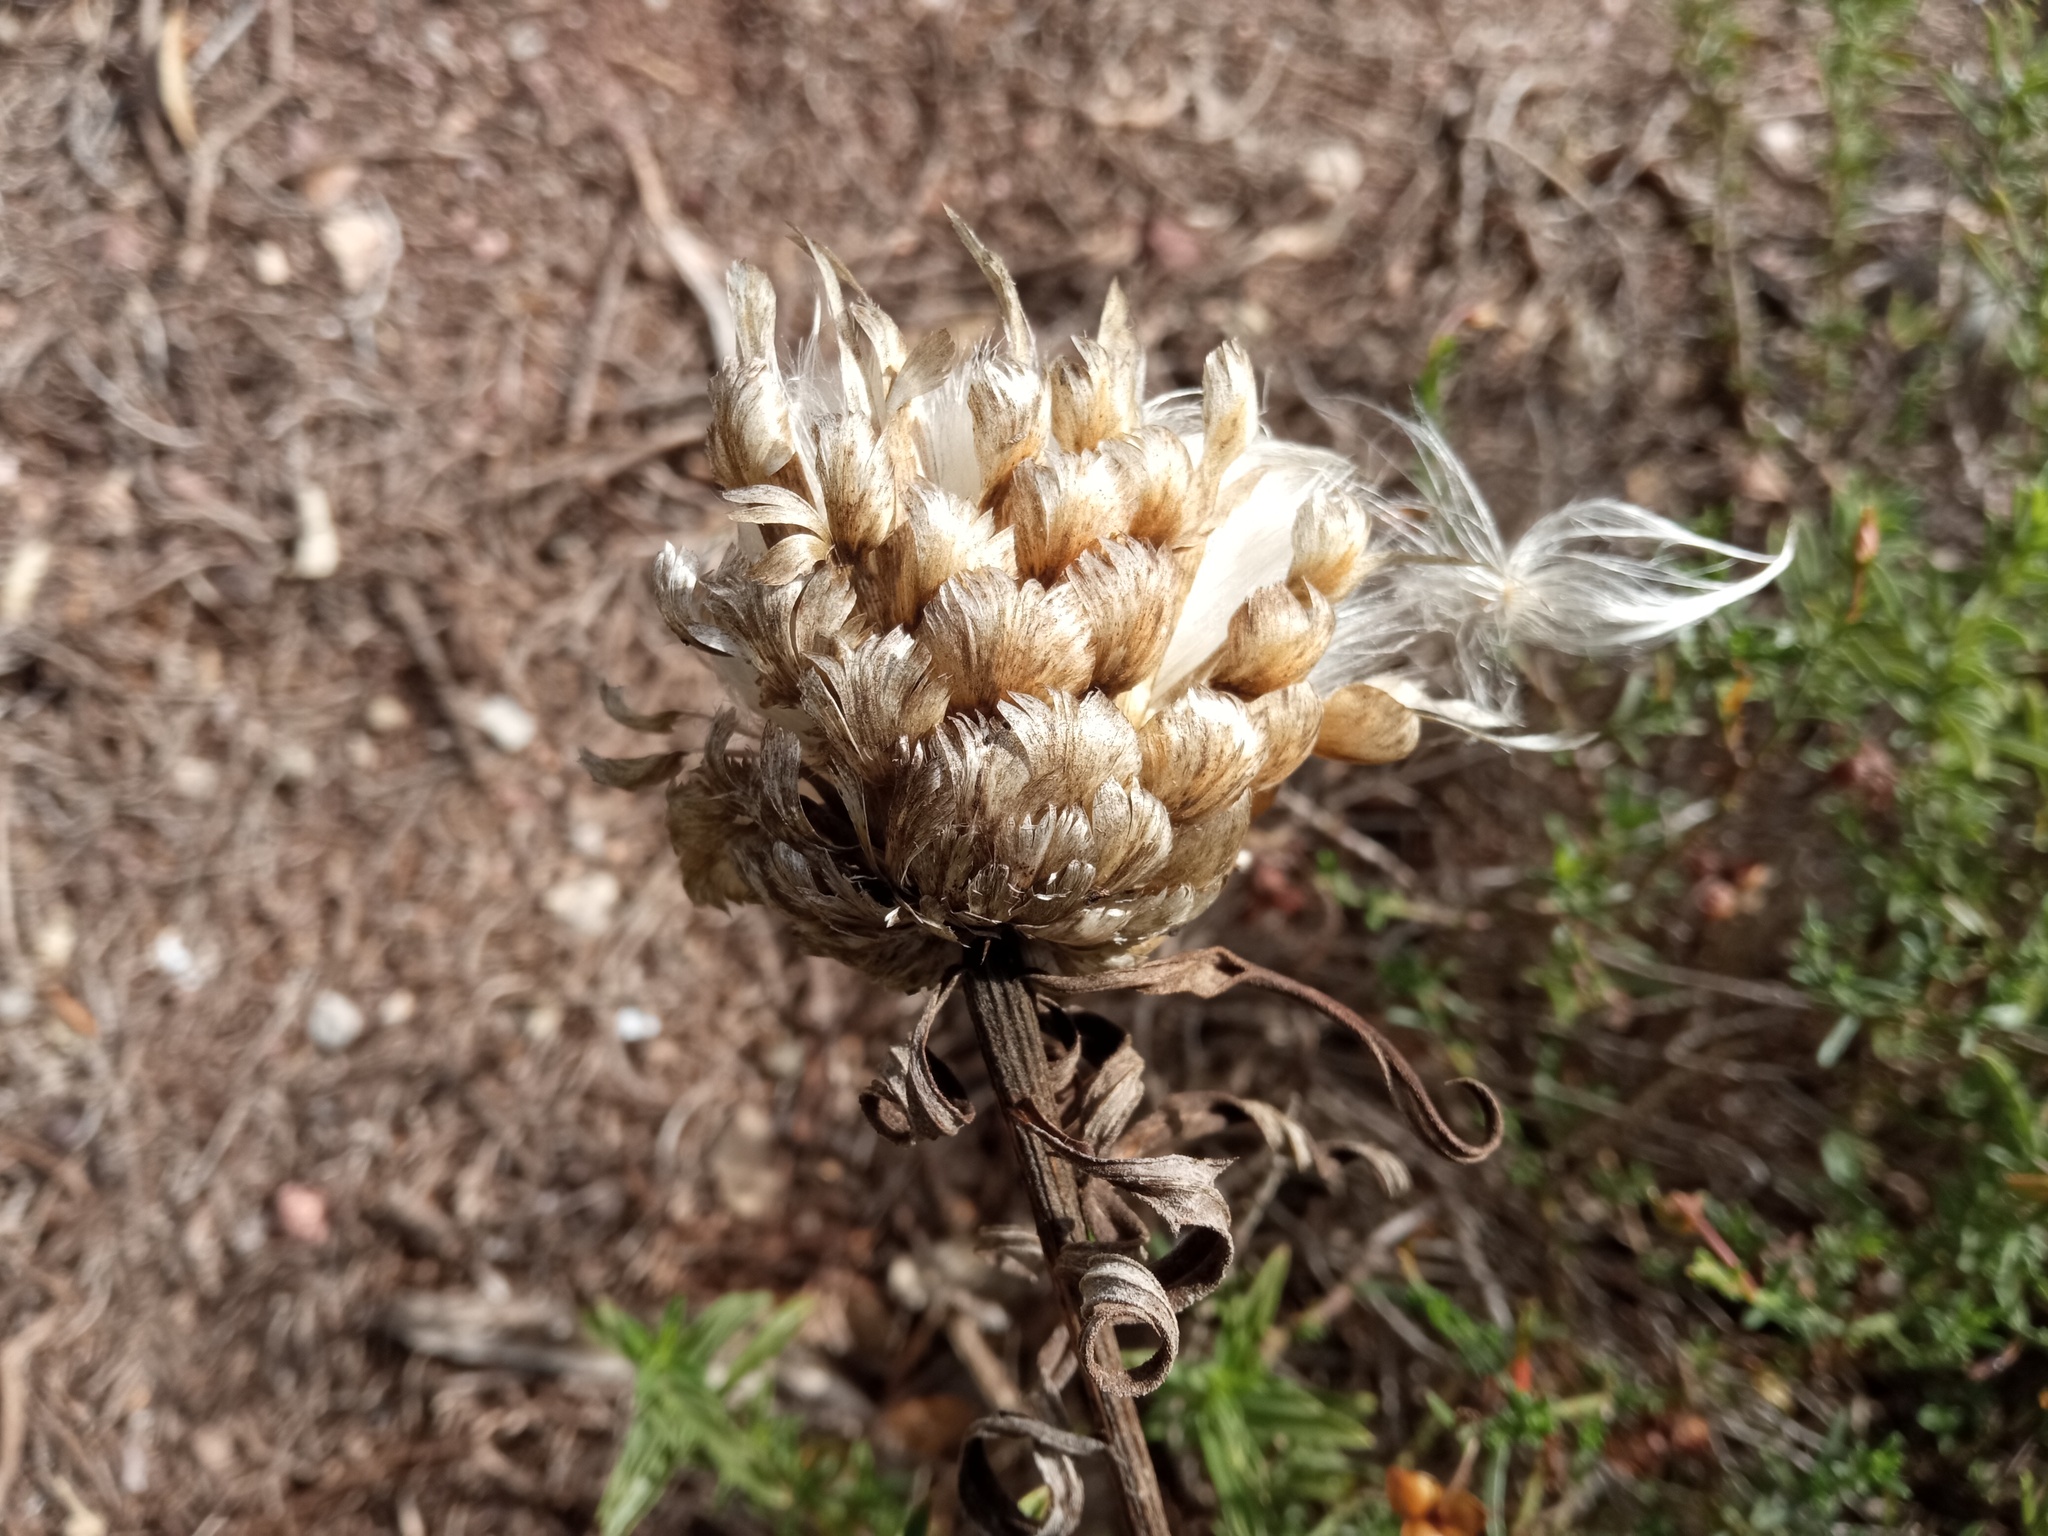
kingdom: Plantae
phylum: Tracheophyta
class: Magnoliopsida
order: Asterales
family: Asteraceae
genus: Leuzea
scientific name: Leuzea conifera
